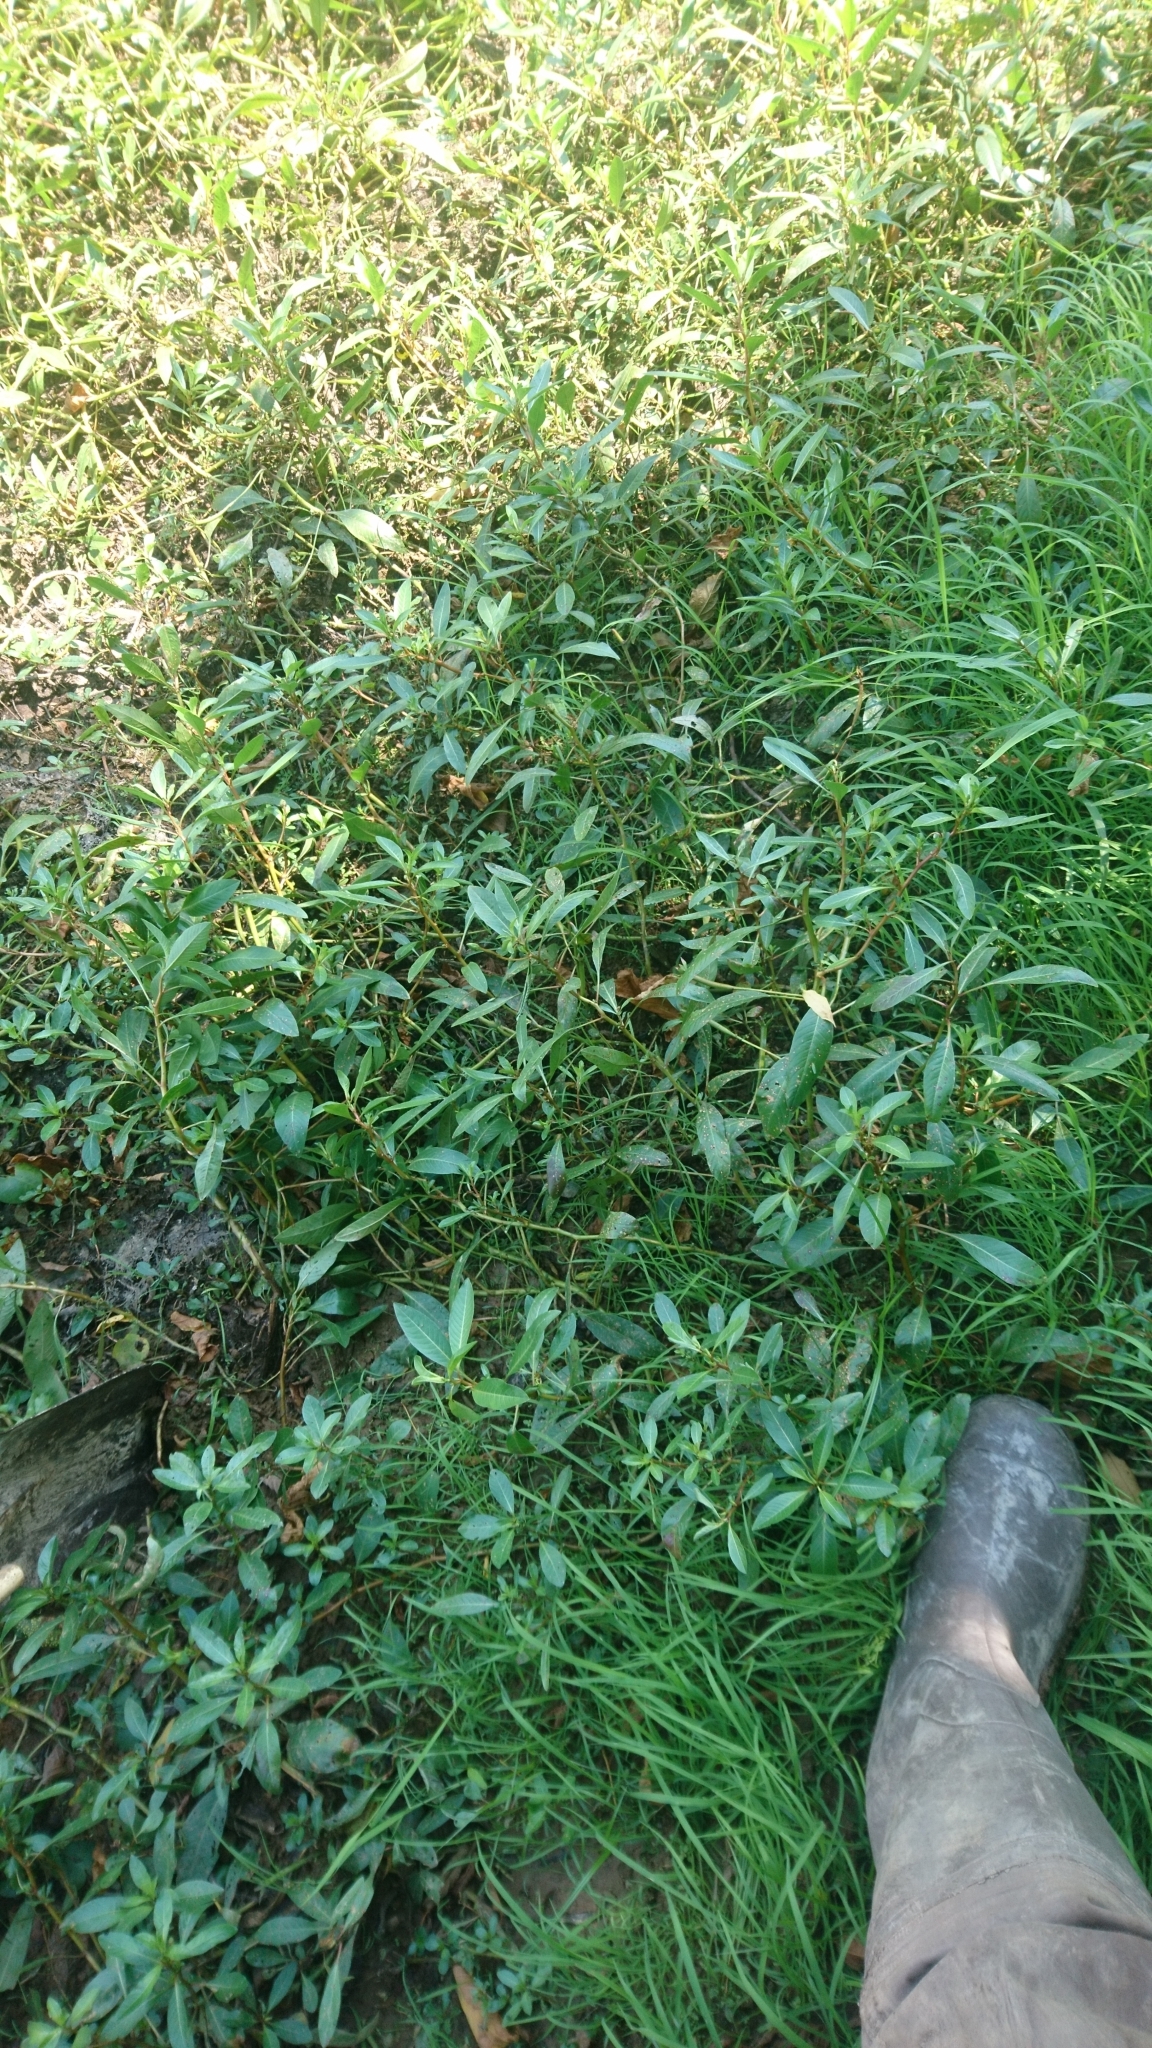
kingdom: Plantae
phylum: Tracheophyta
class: Magnoliopsida
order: Myrtales
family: Onagraceae
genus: Ludwigia
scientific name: Ludwigia peploides
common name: Floating primrose-willow
